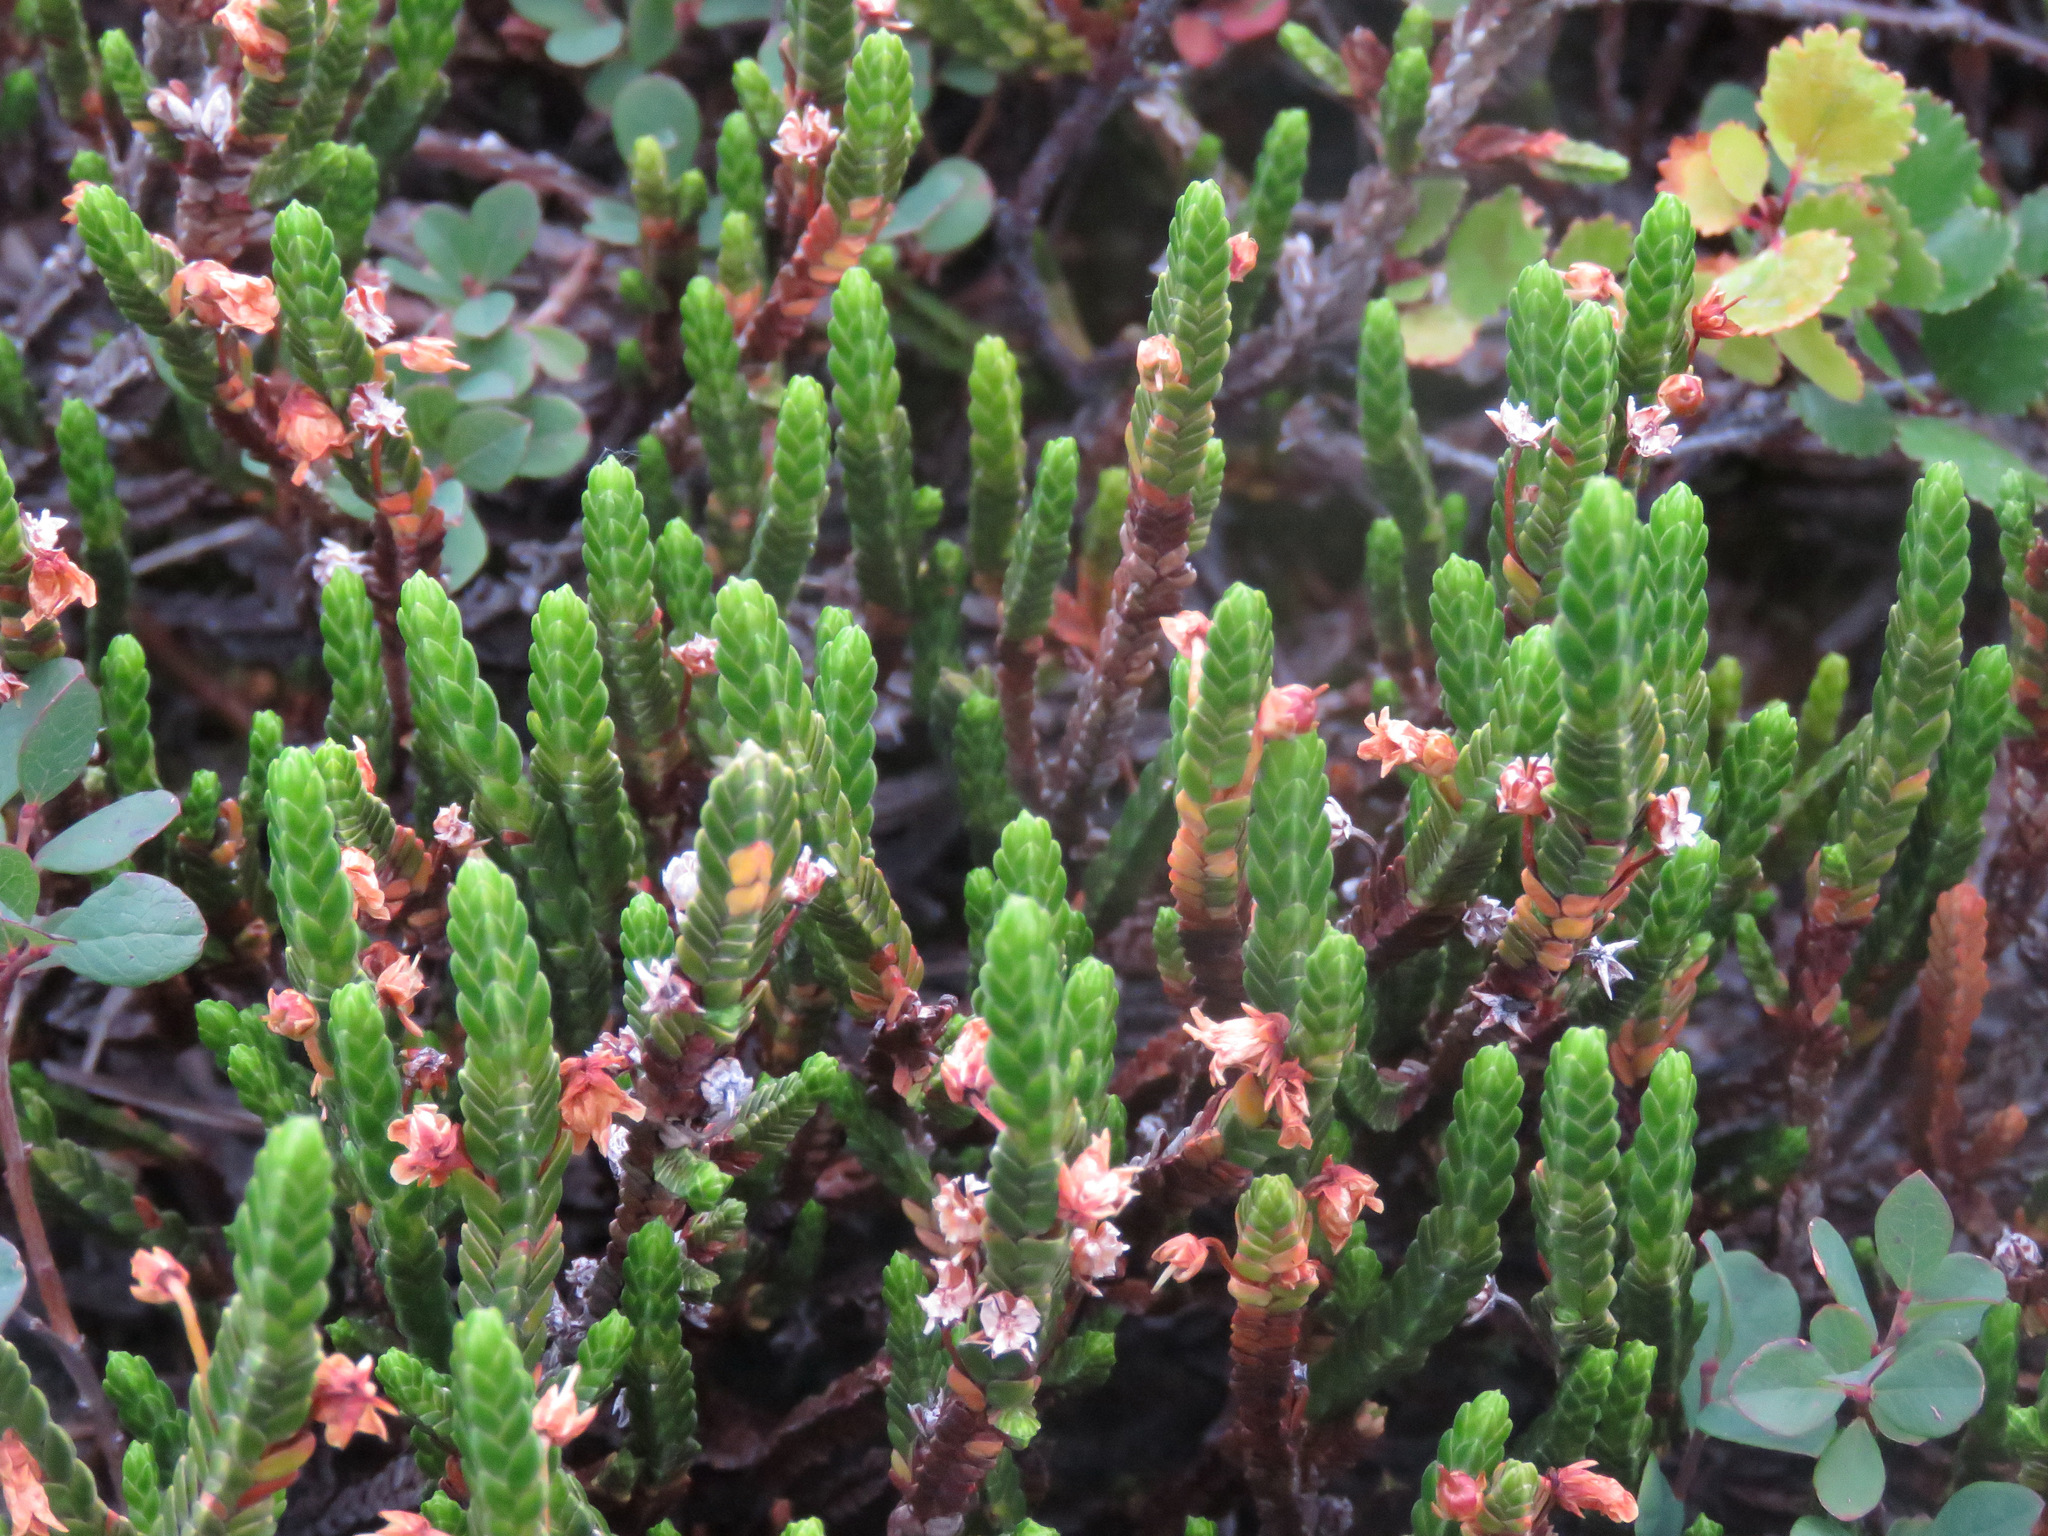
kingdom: Plantae
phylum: Tracheophyta
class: Magnoliopsida
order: Ericales
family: Ericaceae
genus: Cassiope
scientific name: Cassiope tetragona
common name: Arctic bell heather
